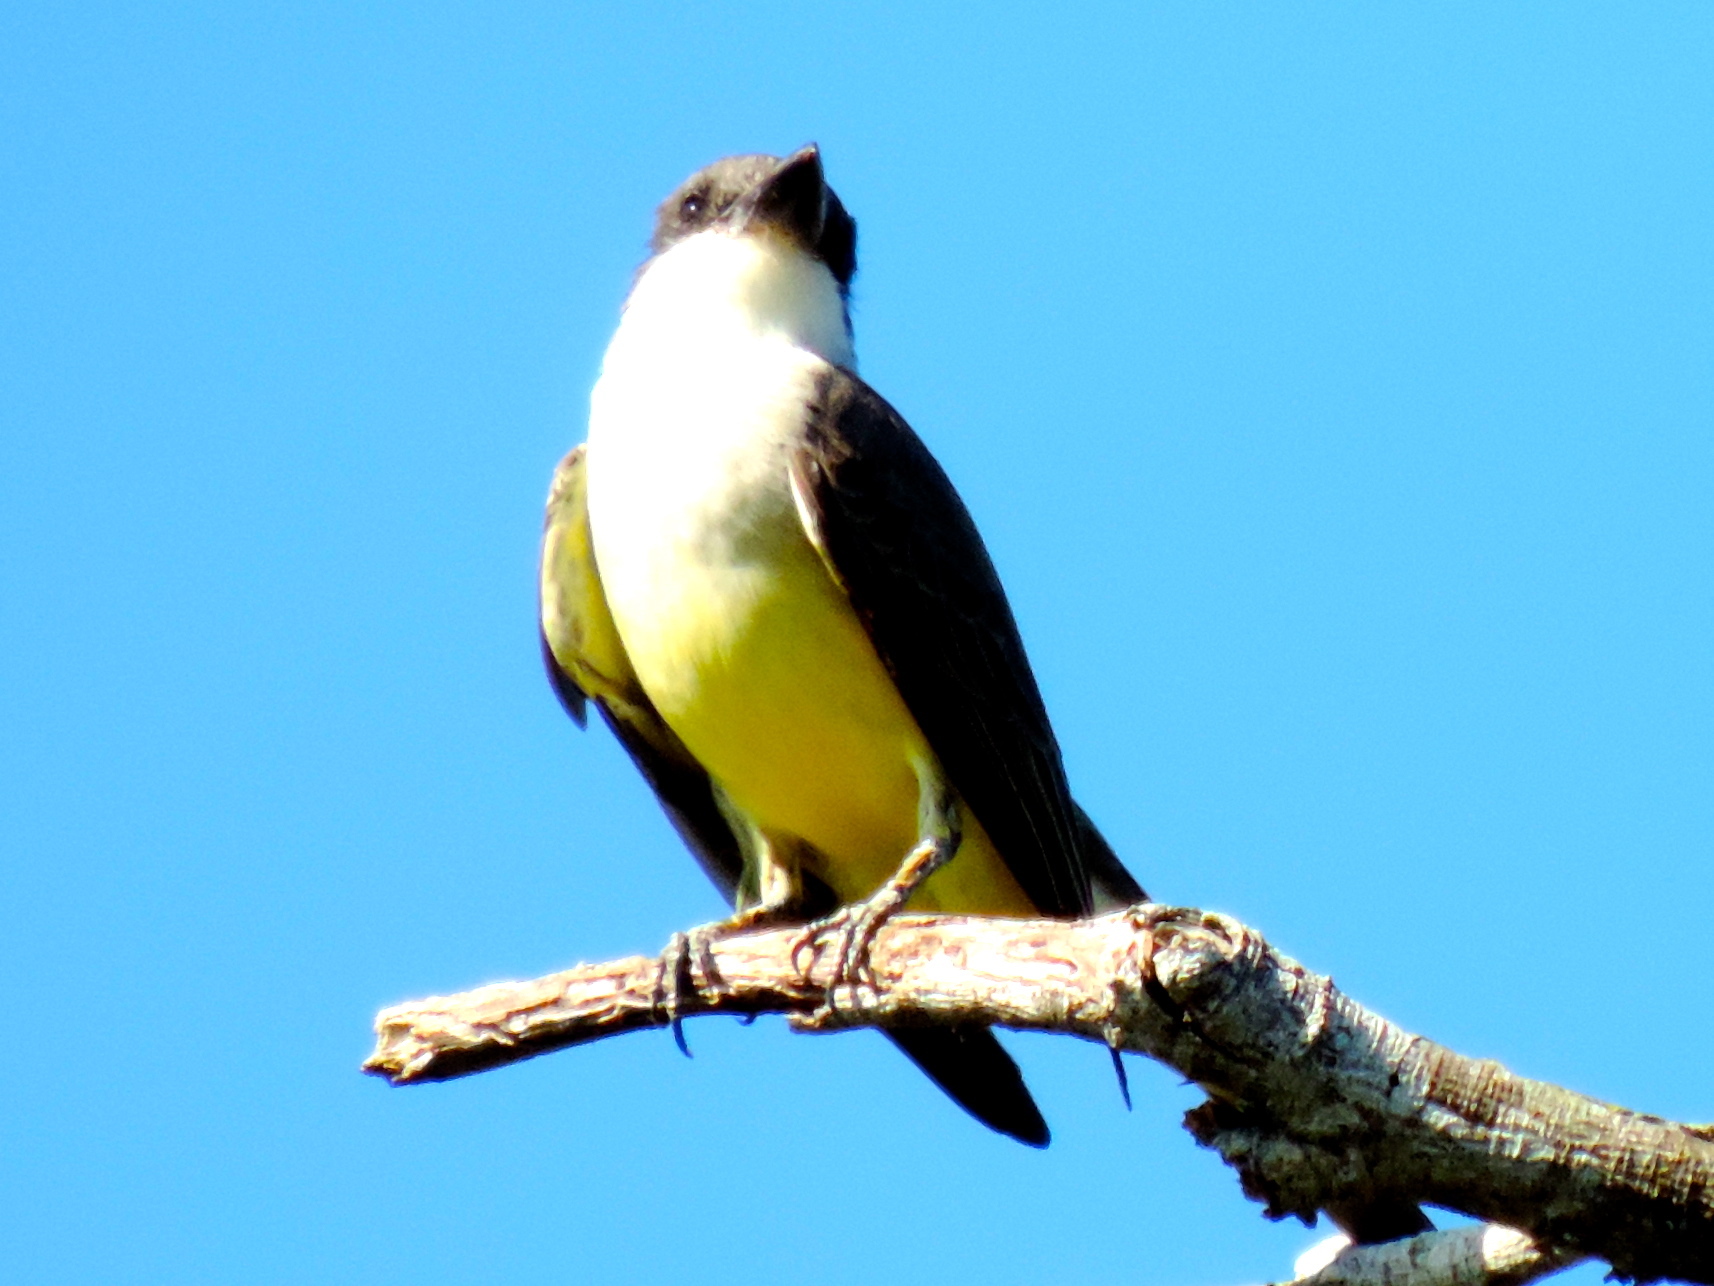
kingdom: Animalia
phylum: Chordata
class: Aves
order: Passeriformes
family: Tyrannidae
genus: Tyrannus
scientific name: Tyrannus crassirostris
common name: Thick-billed kingbird
